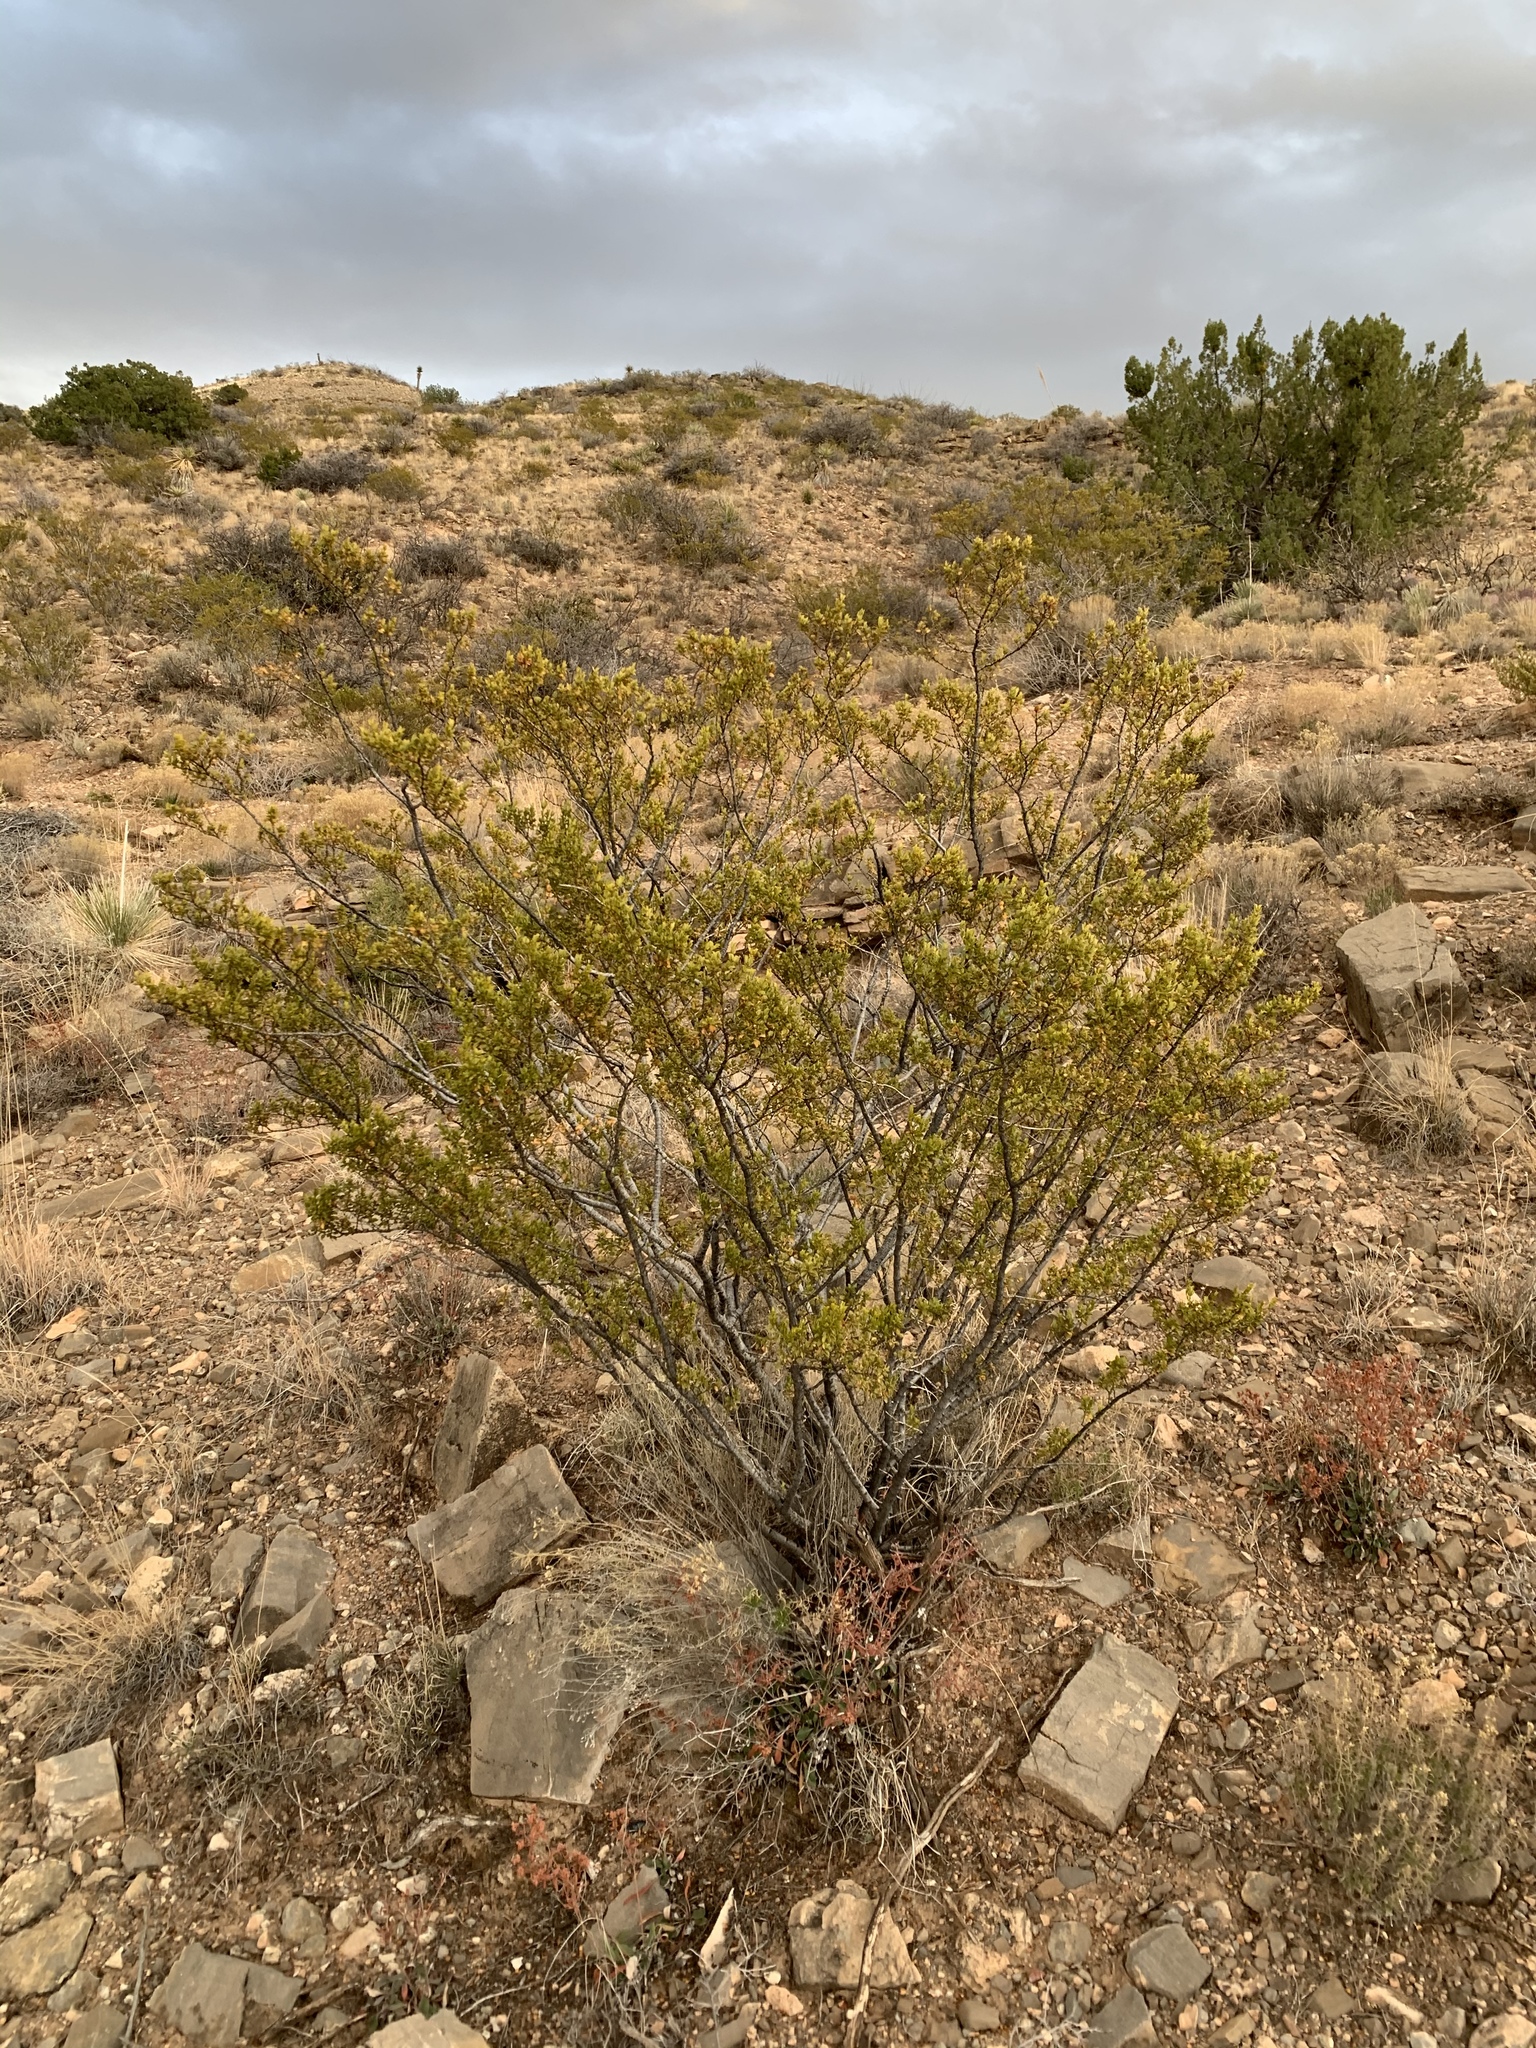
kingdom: Plantae
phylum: Tracheophyta
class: Magnoliopsida
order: Zygophyllales
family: Zygophyllaceae
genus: Larrea
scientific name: Larrea tridentata
